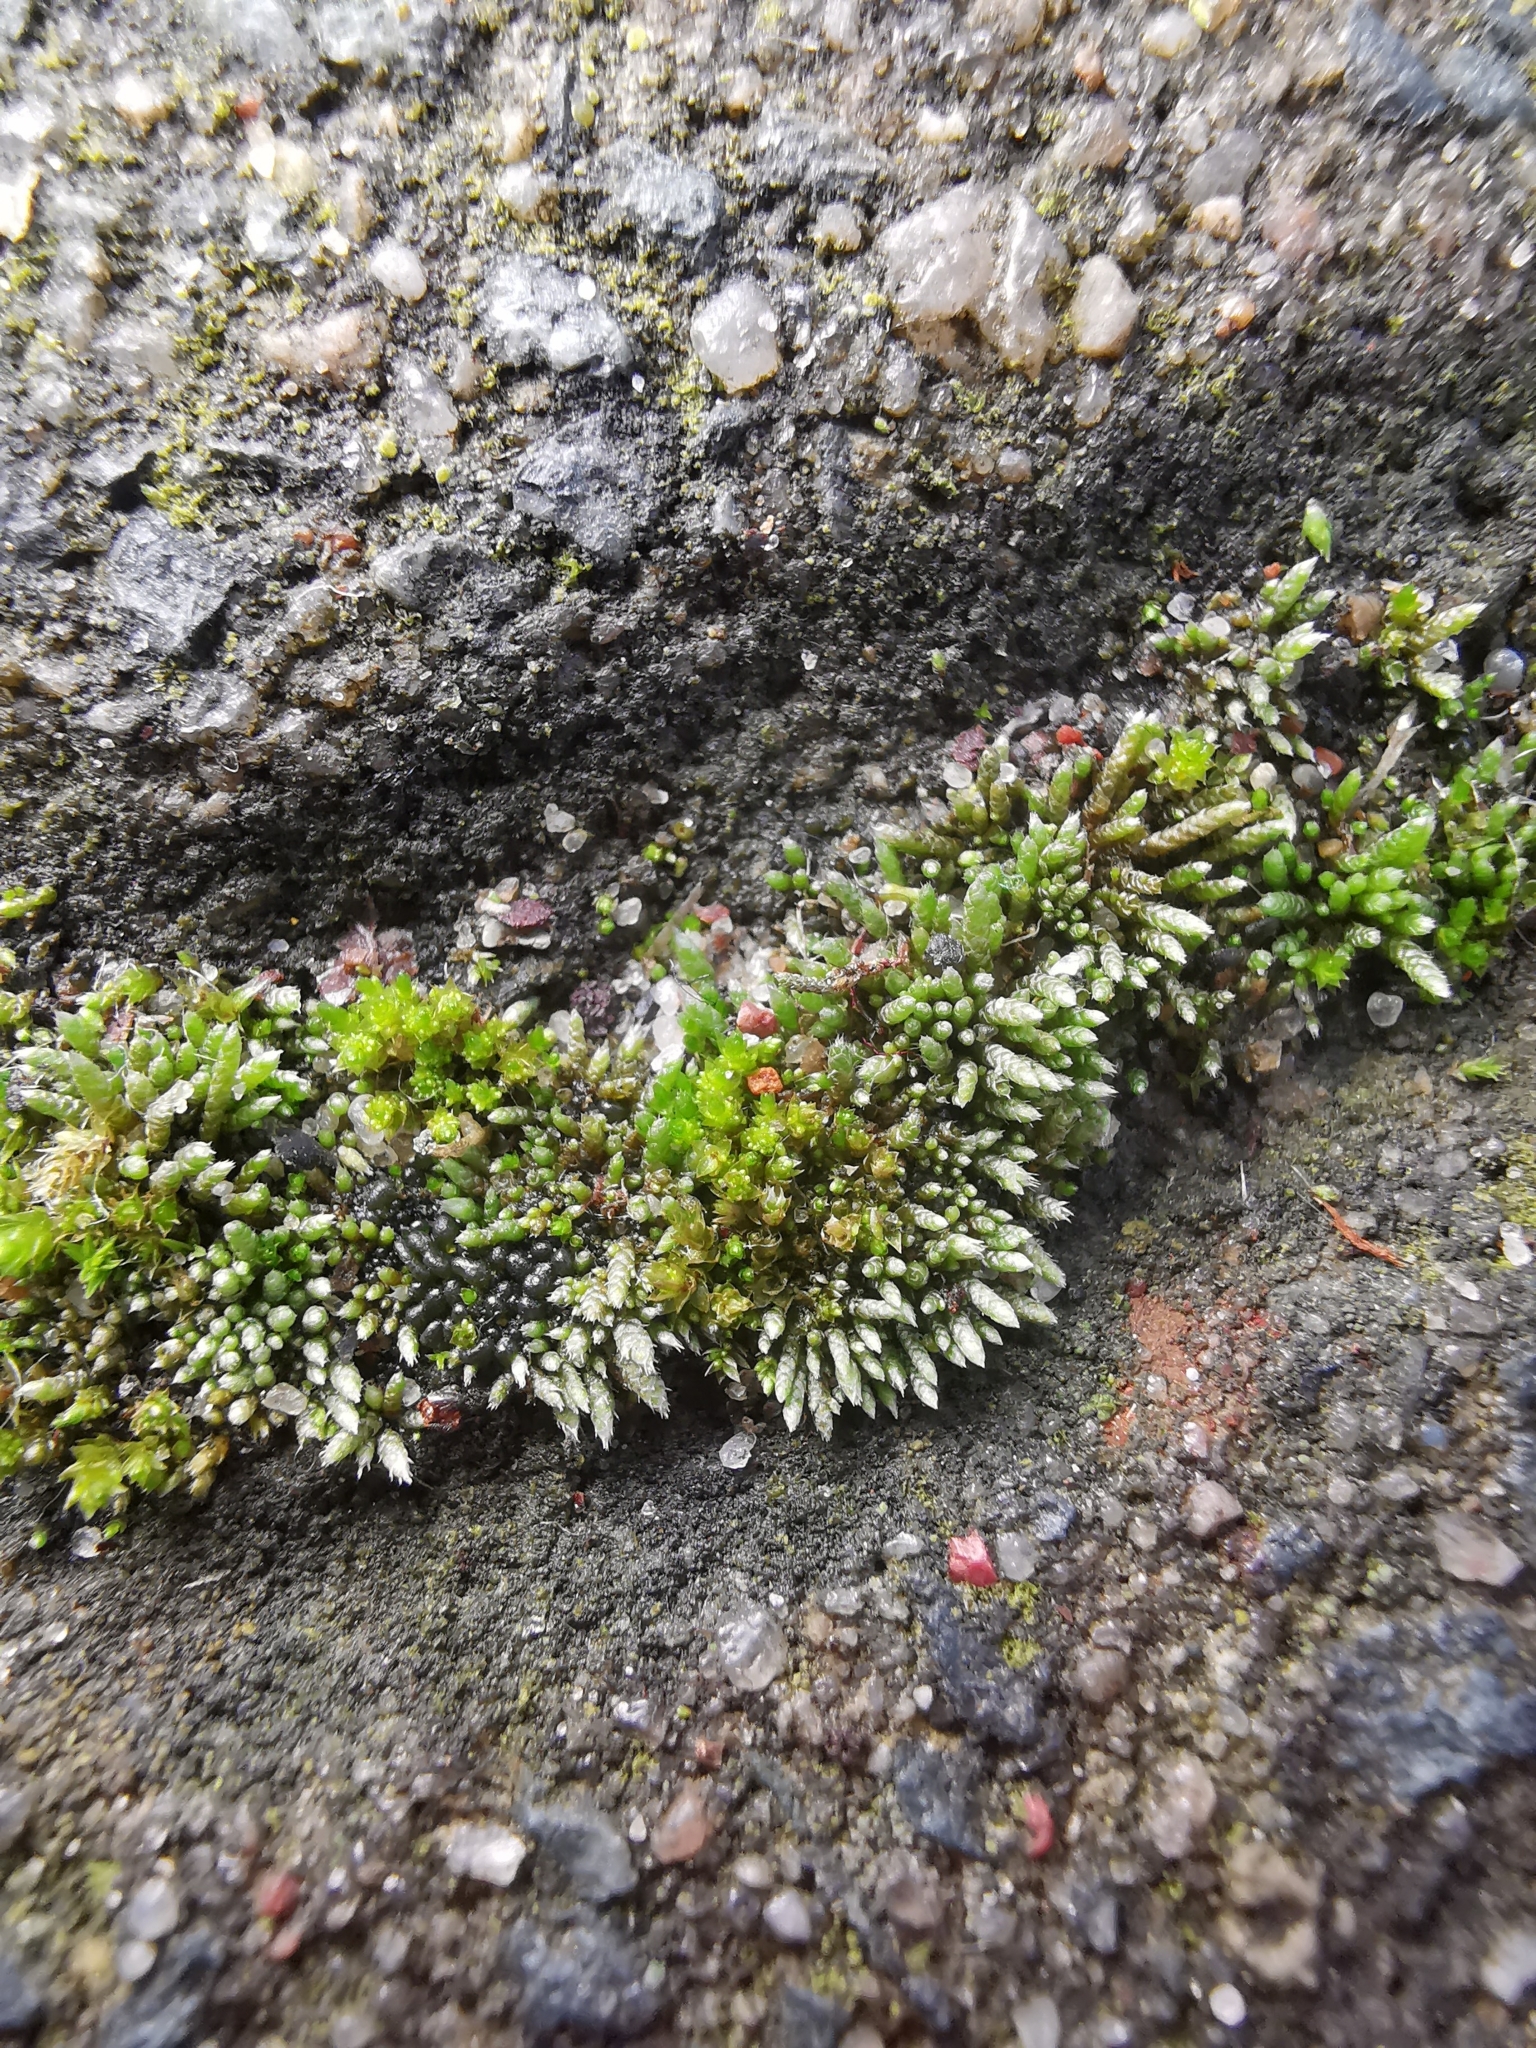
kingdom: Plantae
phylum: Bryophyta
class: Bryopsida
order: Bryales
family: Bryaceae
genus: Bryum
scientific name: Bryum argenteum
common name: Silver-moss
